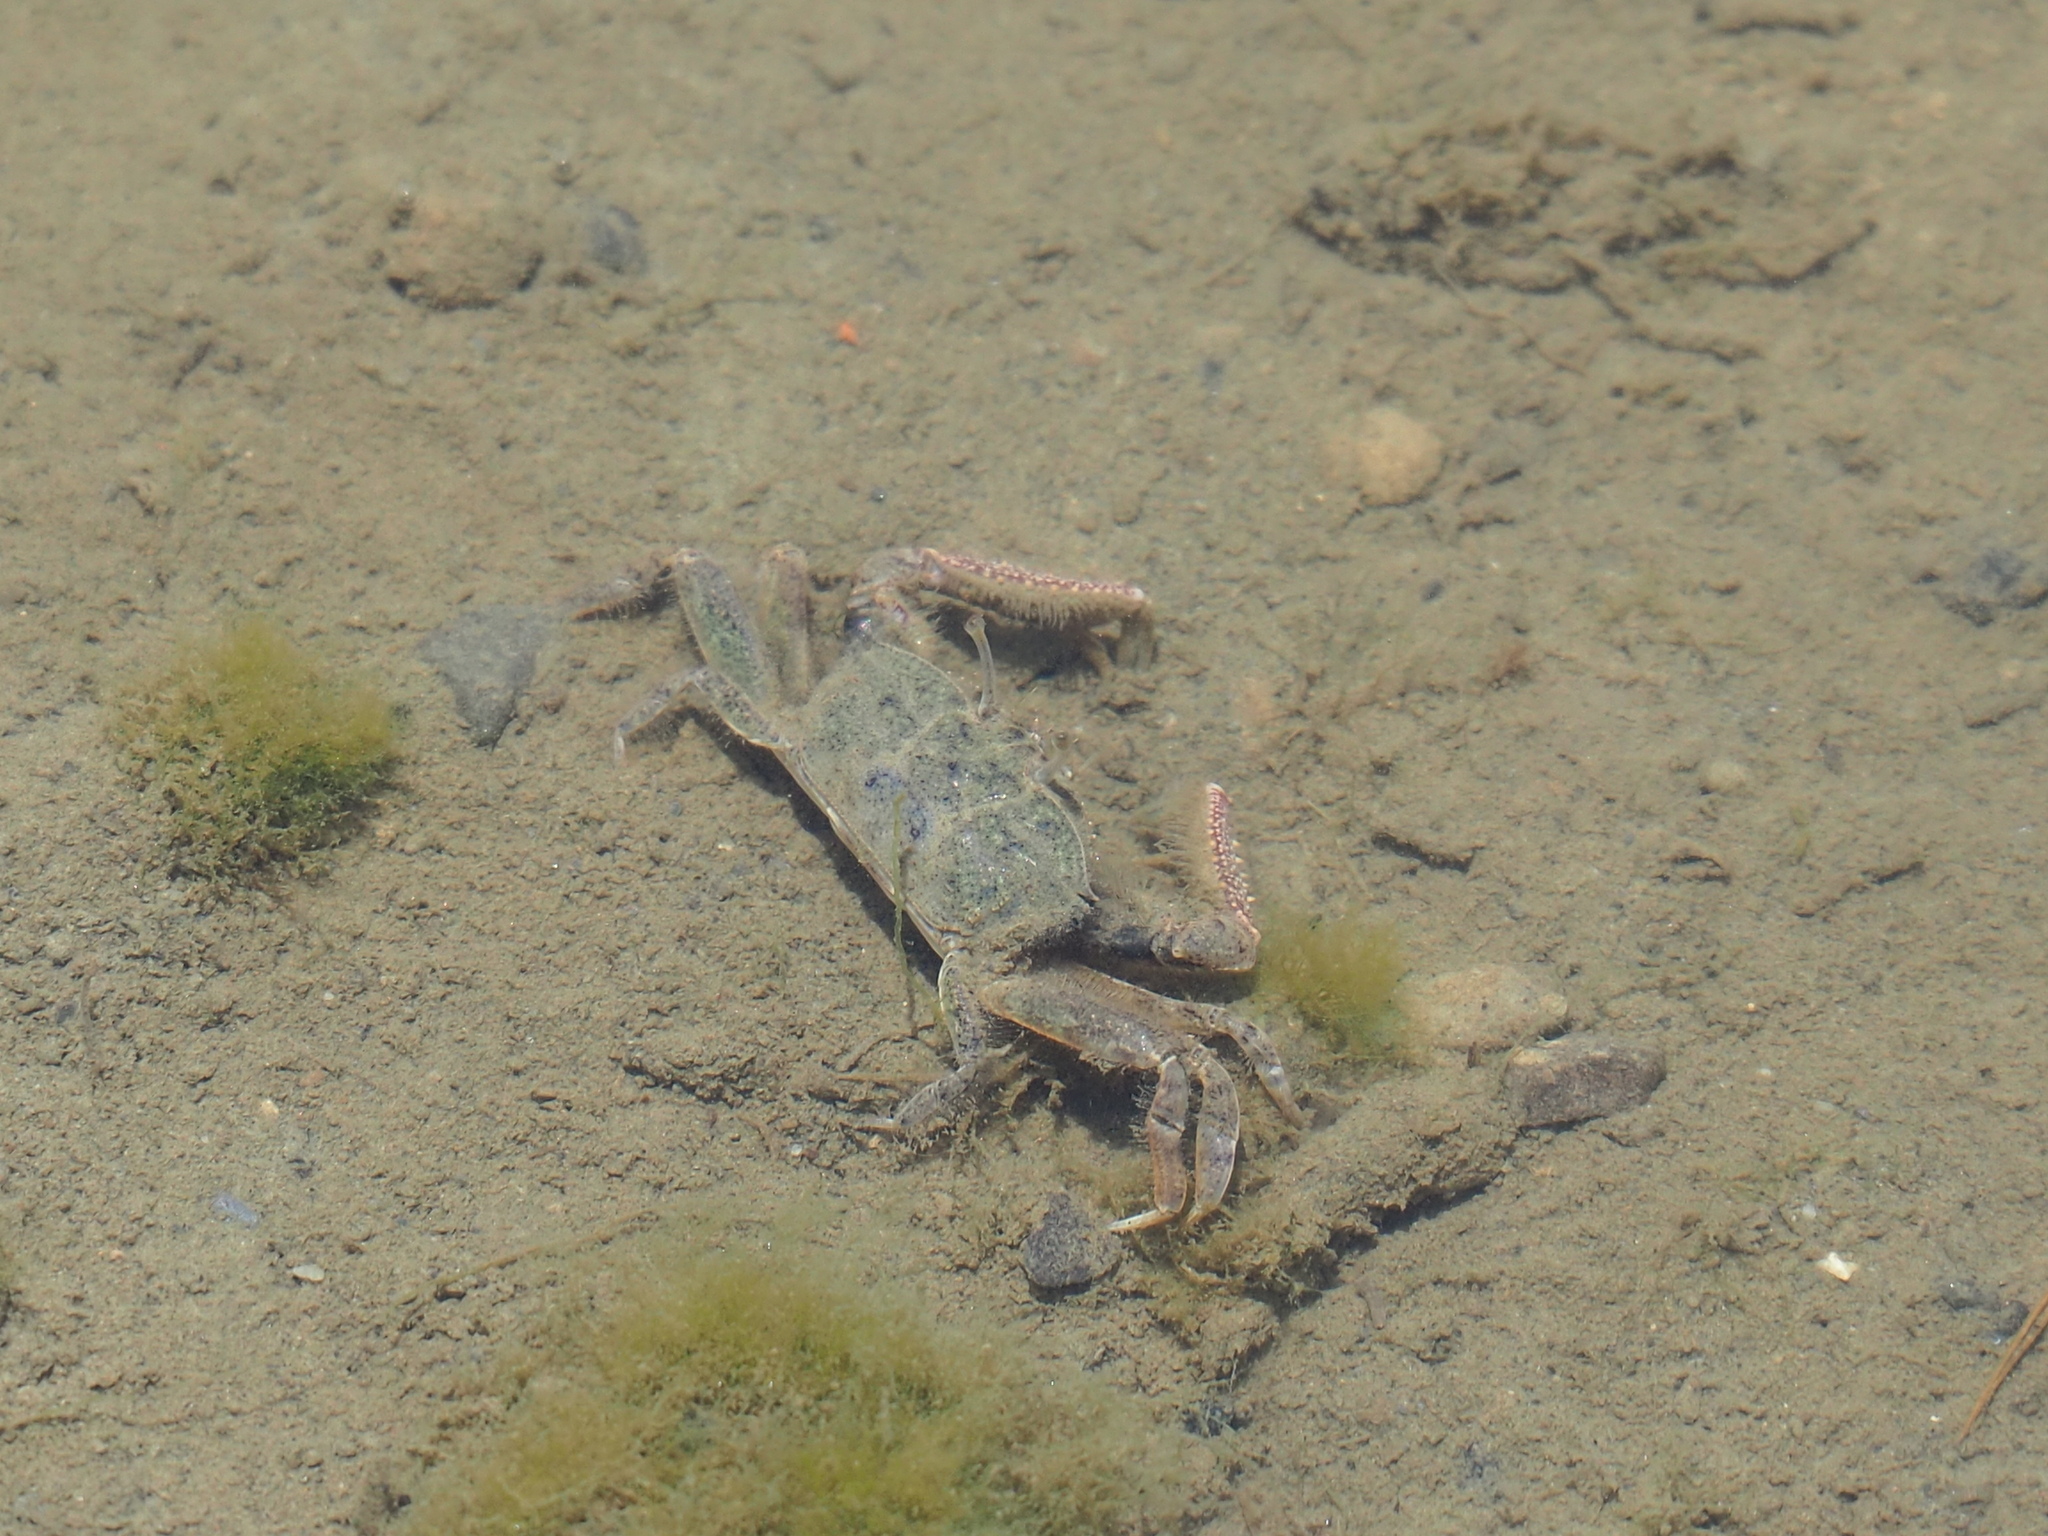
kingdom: Animalia
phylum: Arthropoda
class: Malacostraca
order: Decapoda
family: Macrophthalmidae
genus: Macrophthalmus
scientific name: Macrophthalmus abbreviatus
